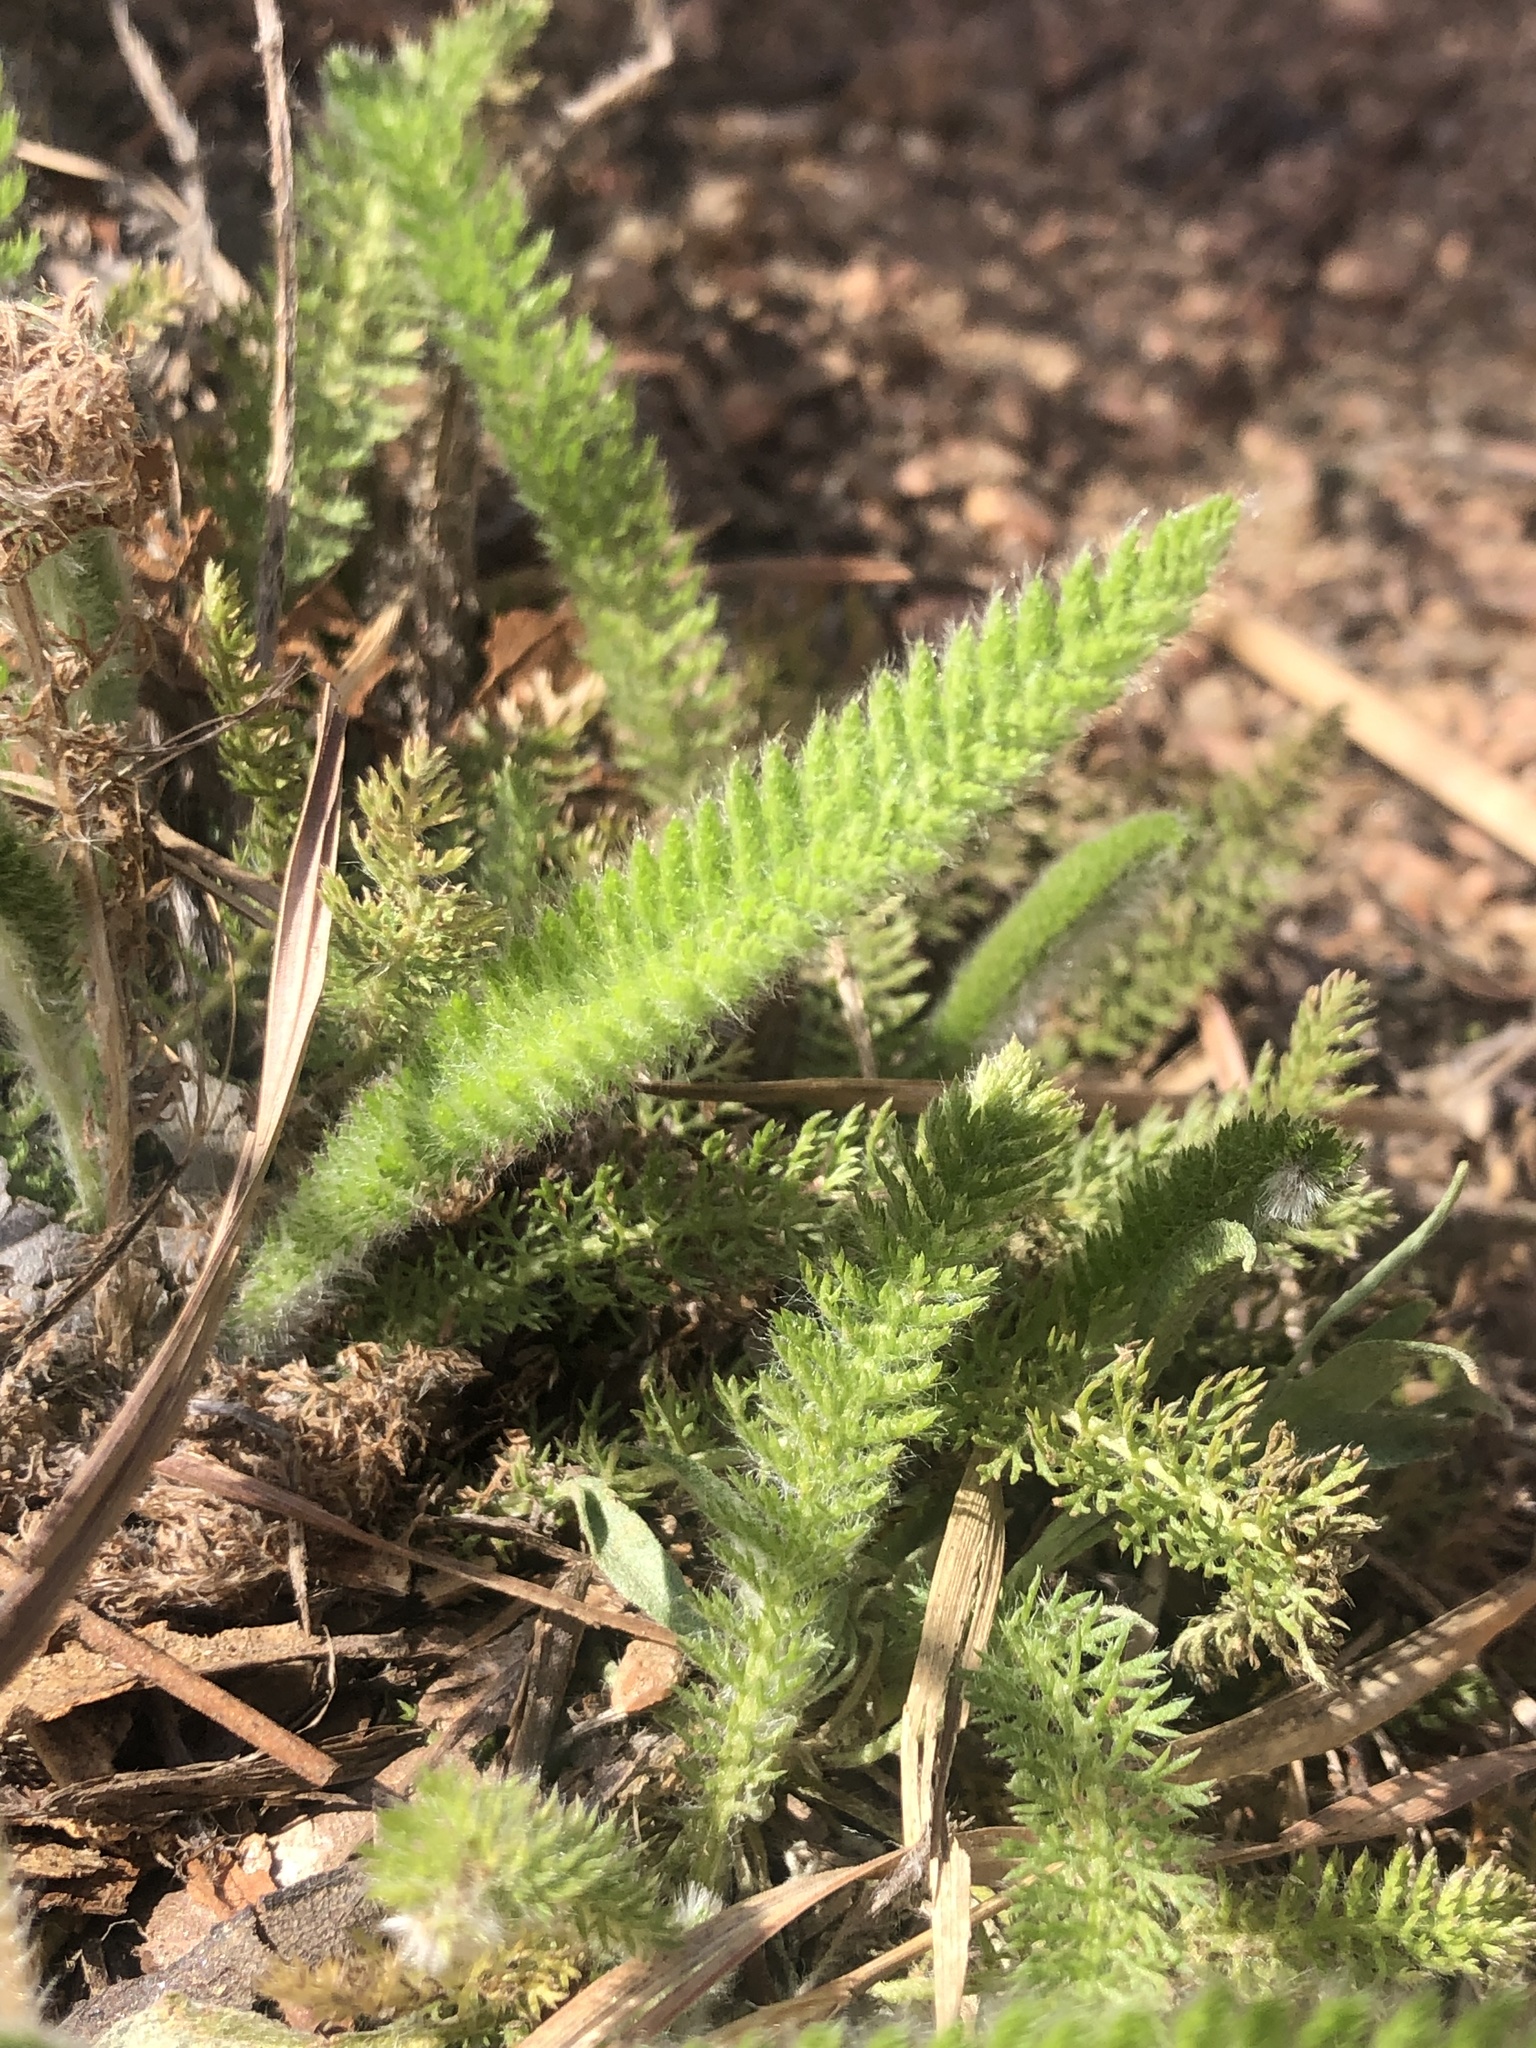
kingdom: Plantae
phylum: Tracheophyta
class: Magnoliopsida
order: Asterales
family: Asteraceae
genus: Achillea
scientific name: Achillea millefolium
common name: Yarrow
